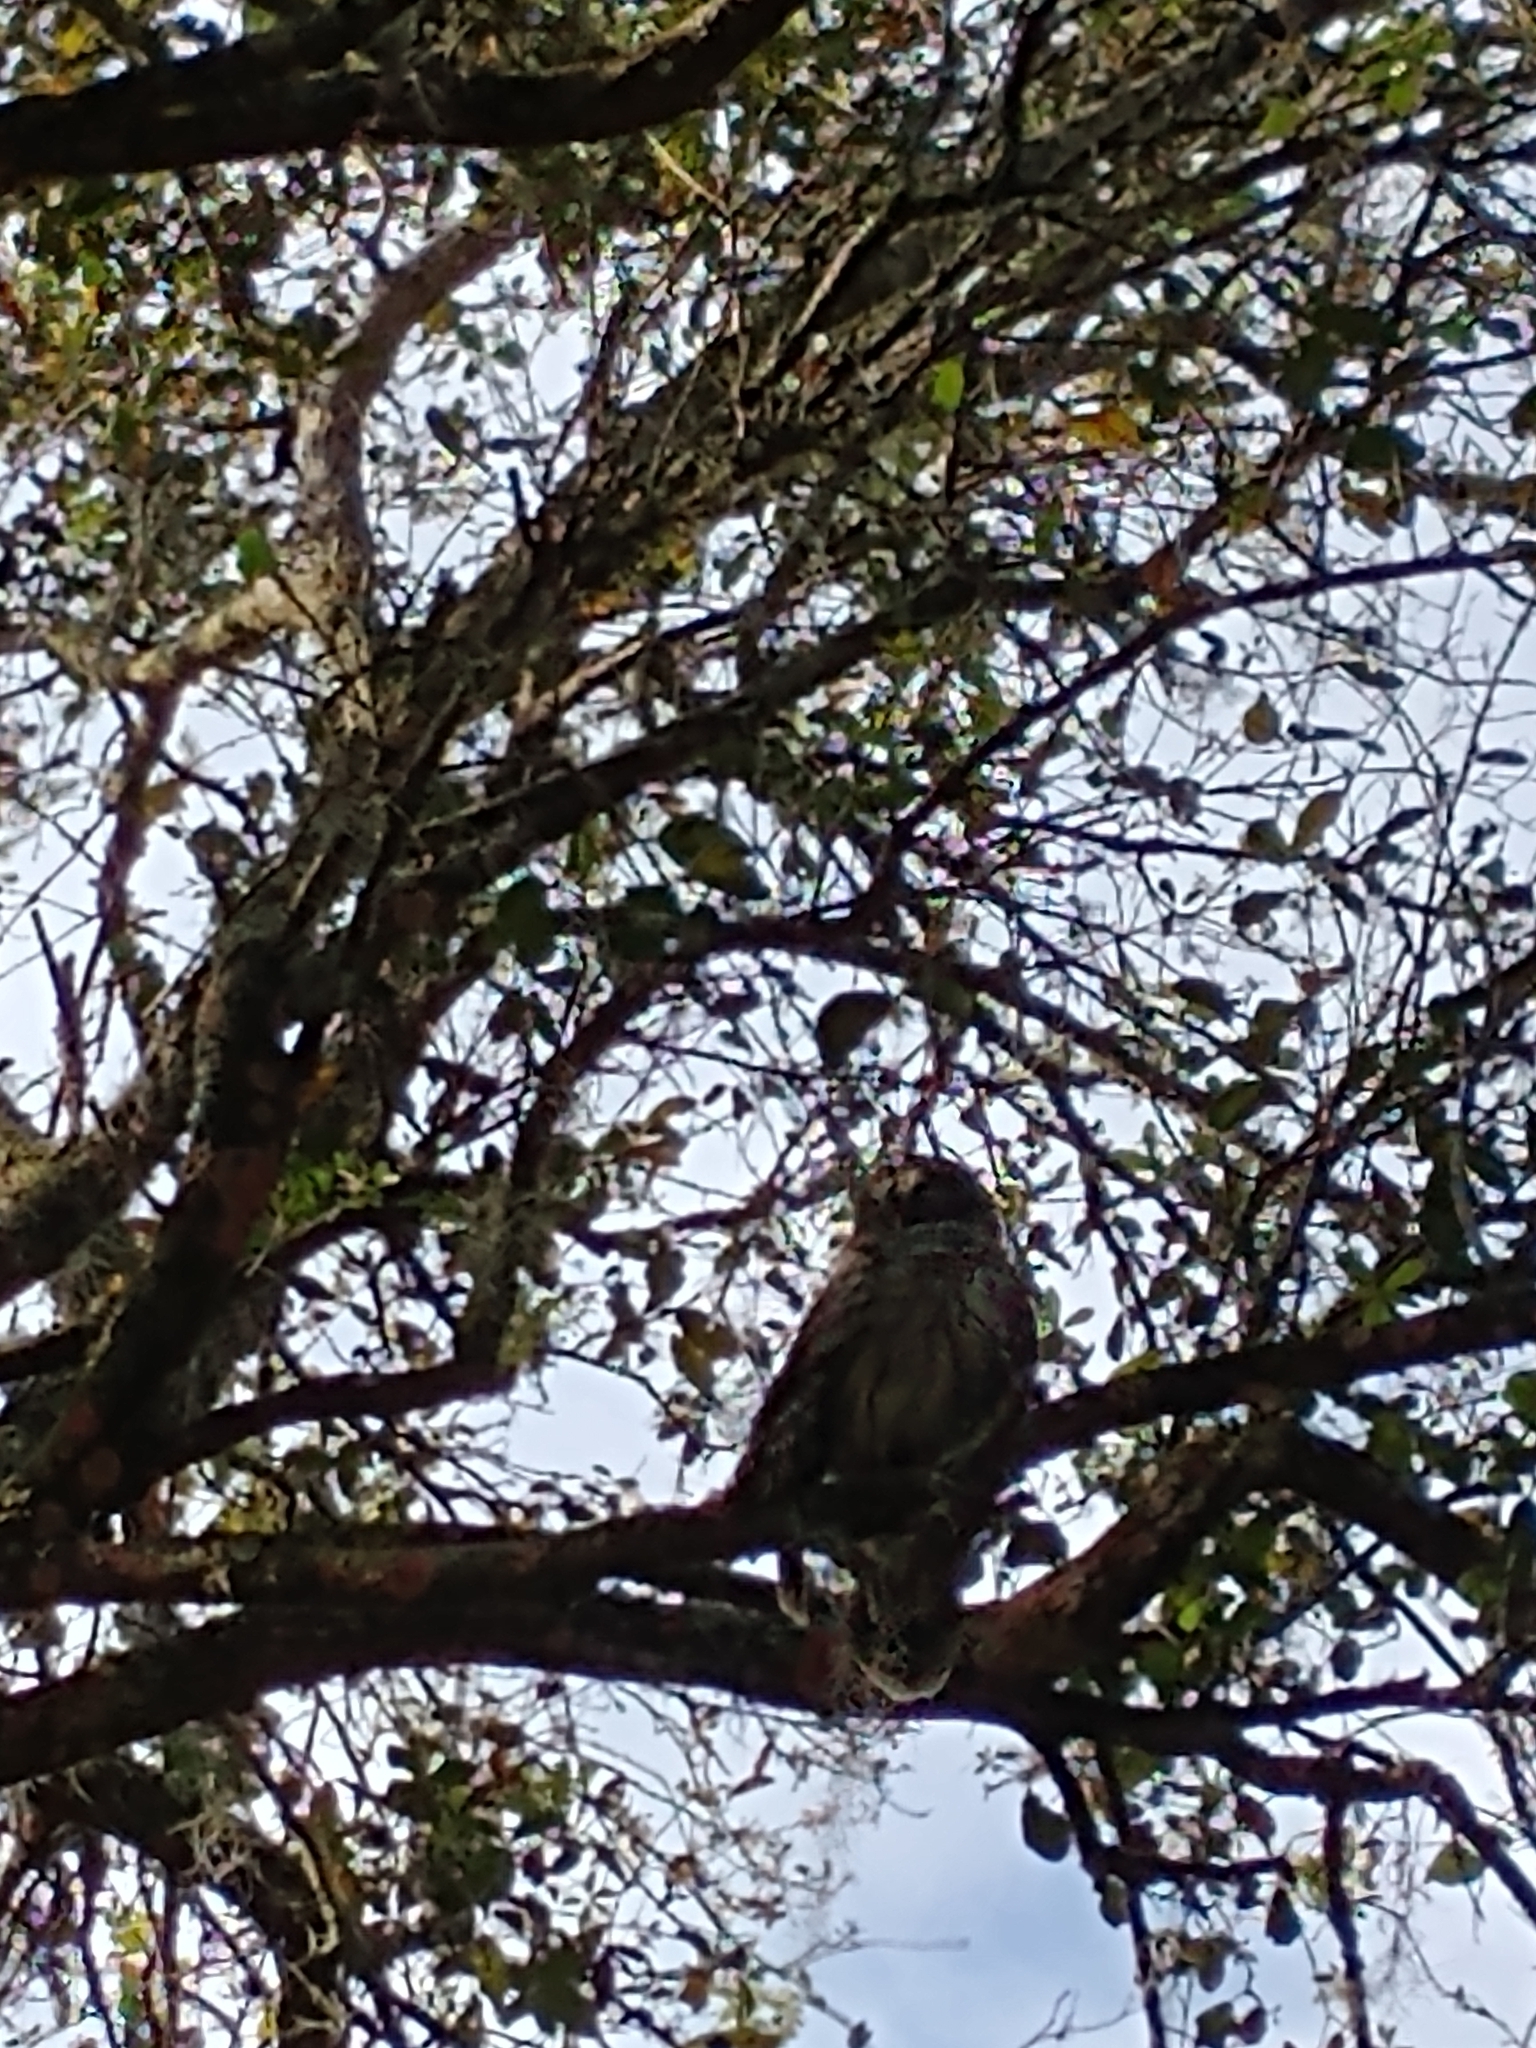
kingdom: Animalia
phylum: Chordata
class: Aves
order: Strigiformes
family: Strigidae
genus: Strix
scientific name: Strix varia
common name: Barred owl
